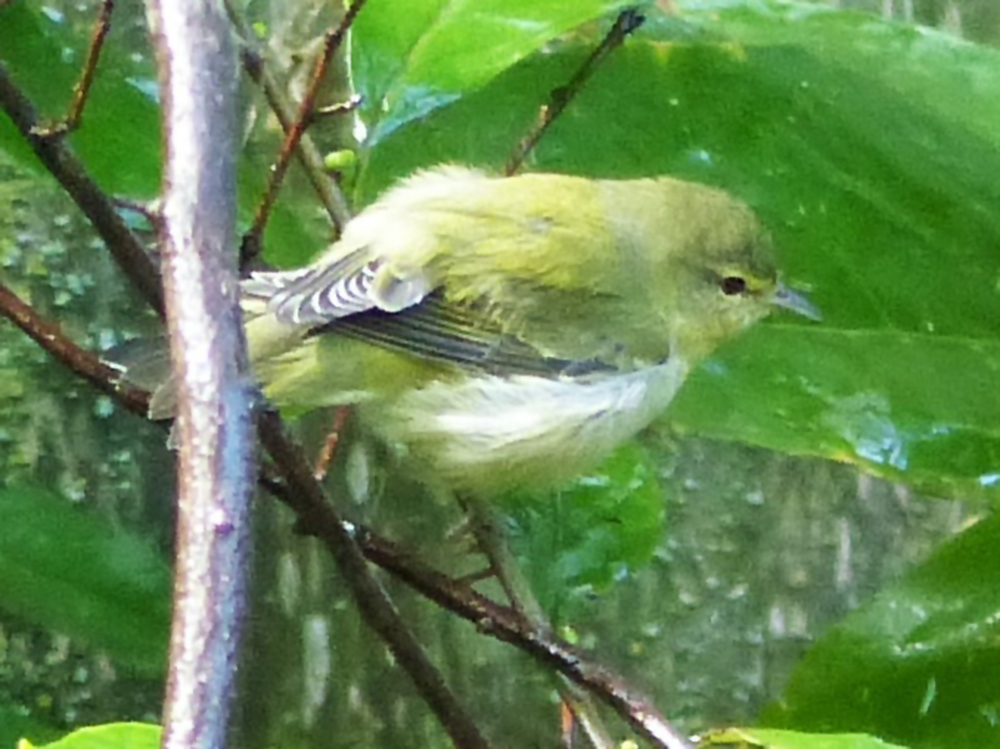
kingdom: Animalia
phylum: Chordata
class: Aves
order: Passeriformes
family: Parulidae
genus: Leiothlypis
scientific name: Leiothlypis peregrina
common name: Tennessee warbler
